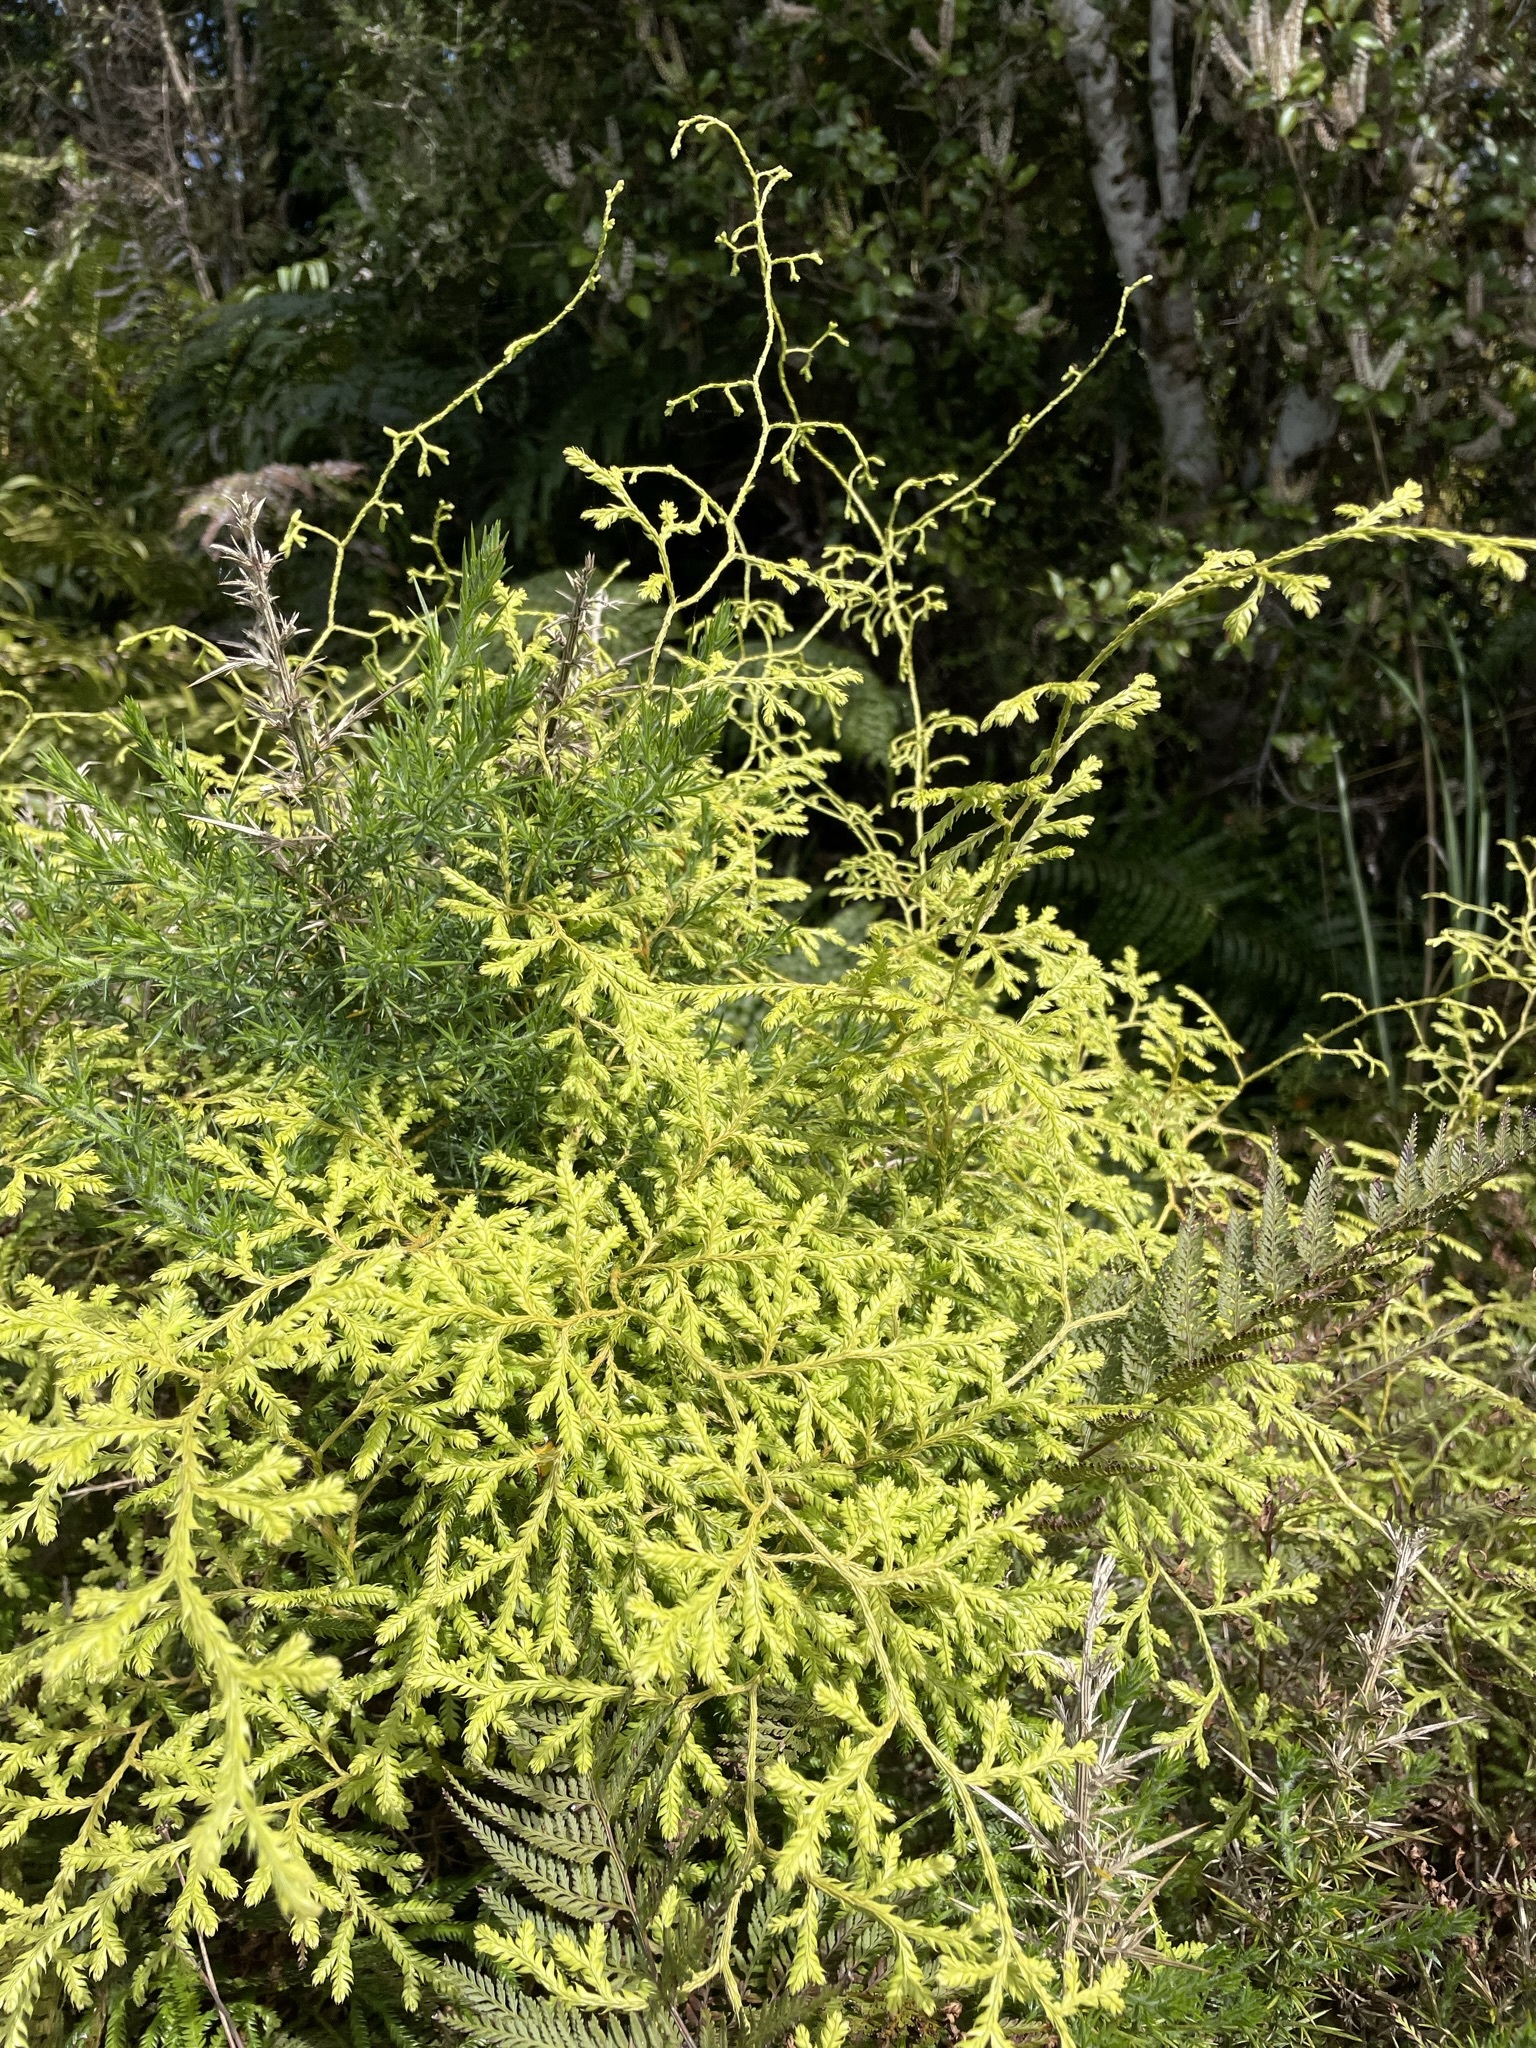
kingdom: Plantae
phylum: Tracheophyta
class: Lycopodiopsida
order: Lycopodiales
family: Lycopodiaceae
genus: Lycopodium
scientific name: Lycopodium volubile
